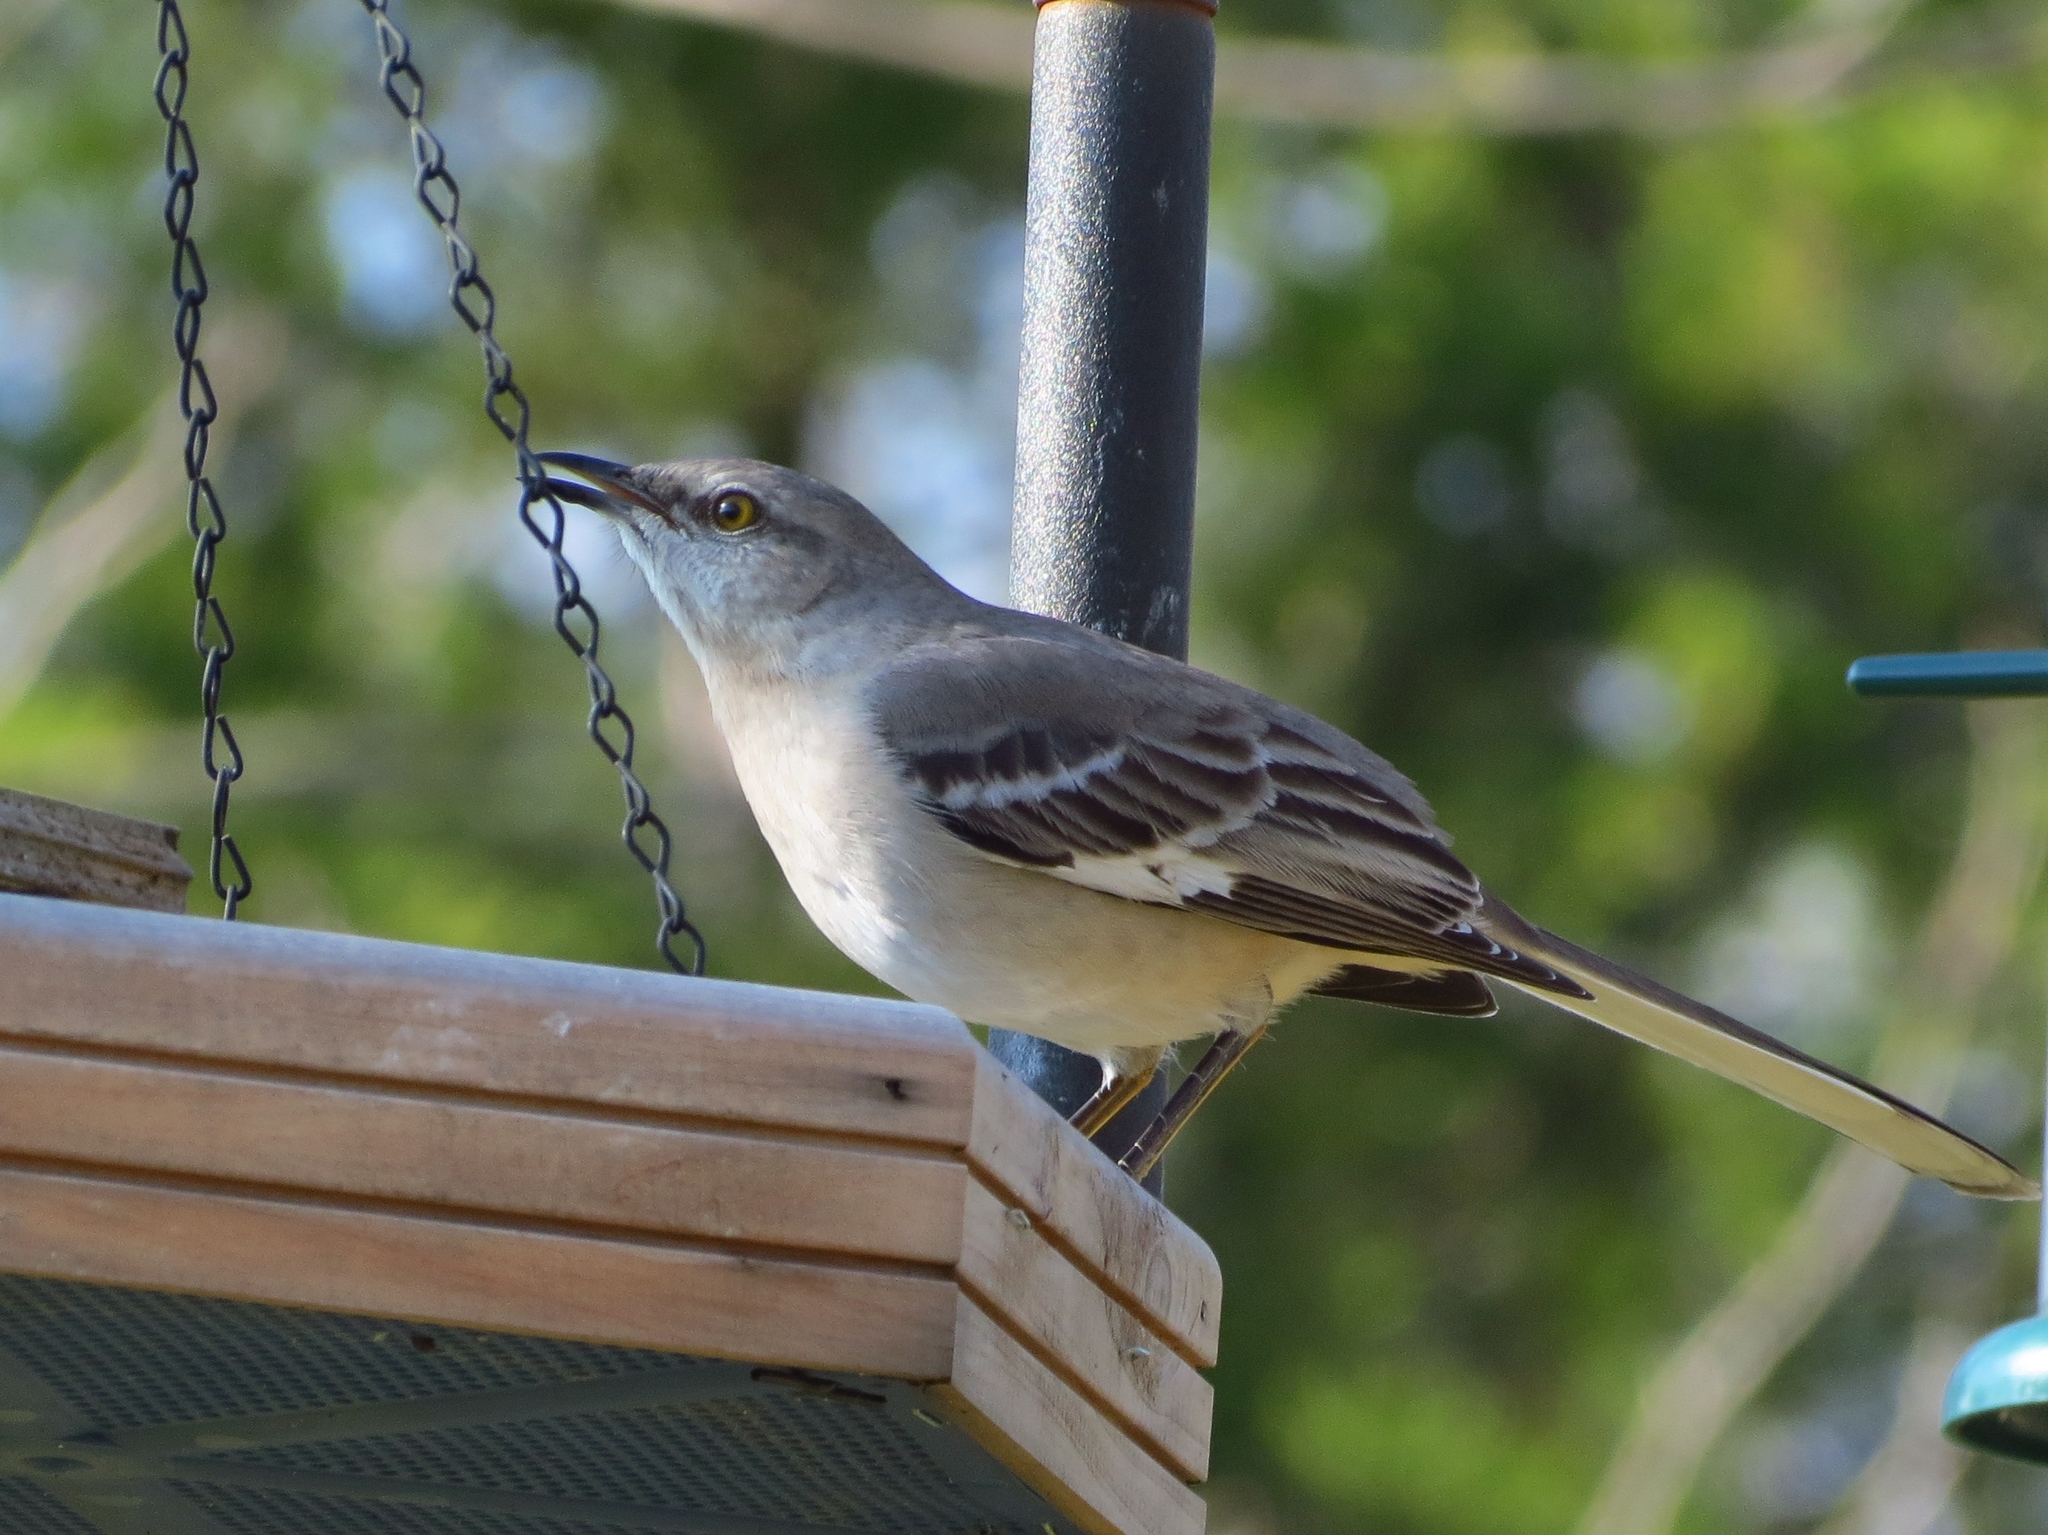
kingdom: Animalia
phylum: Chordata
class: Aves
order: Passeriformes
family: Mimidae
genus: Mimus
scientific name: Mimus polyglottos
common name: Northern mockingbird
